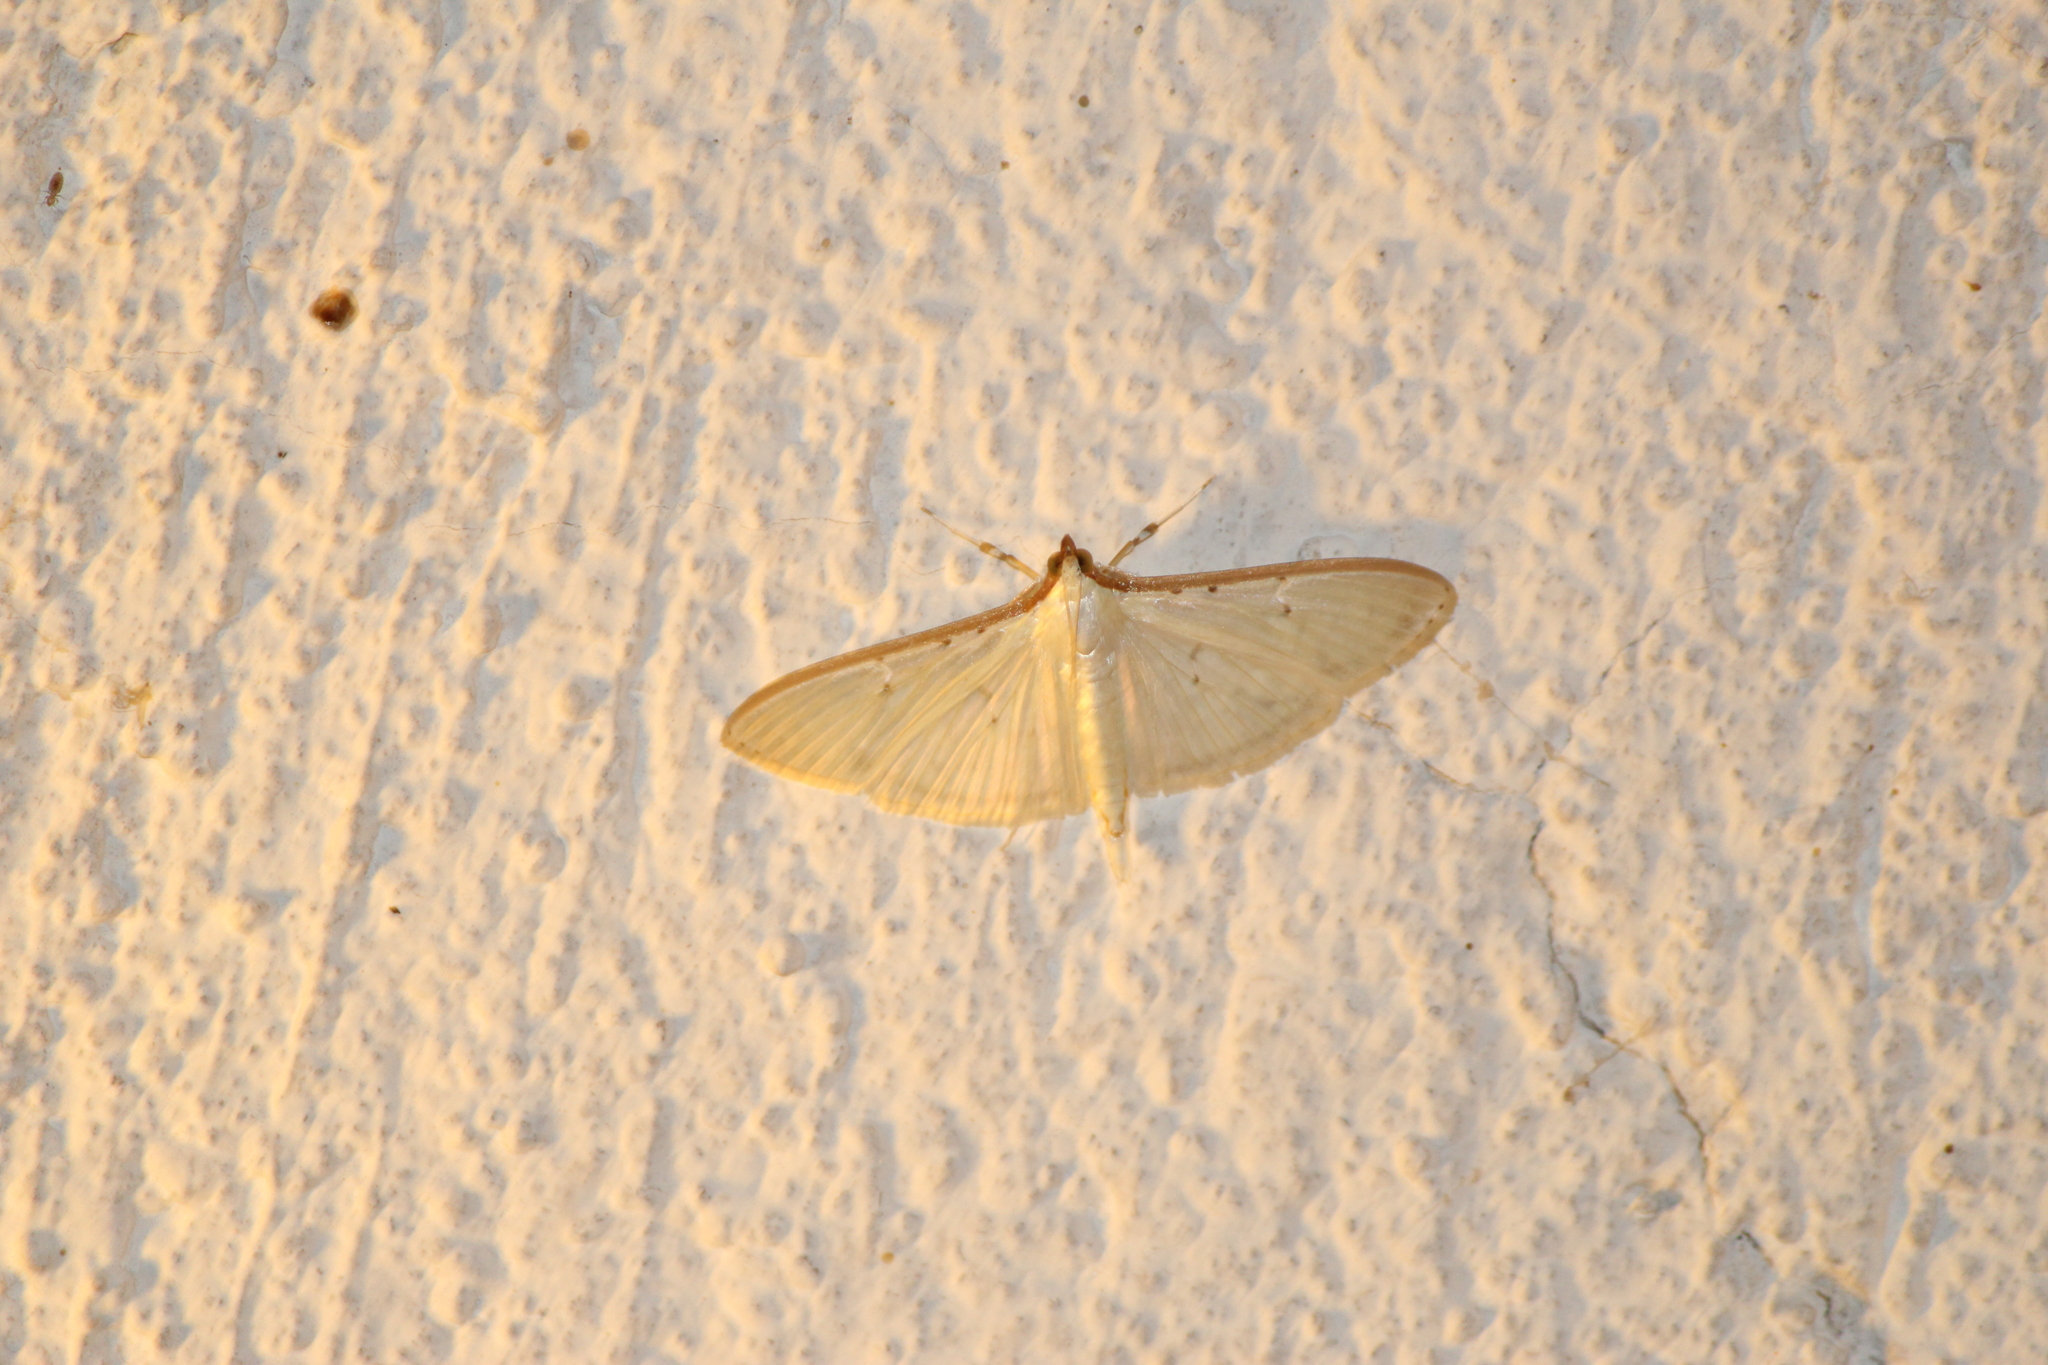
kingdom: Animalia
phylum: Arthropoda
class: Insecta
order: Lepidoptera
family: Crambidae
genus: Palpita
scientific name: Palpita quadristigmalis
